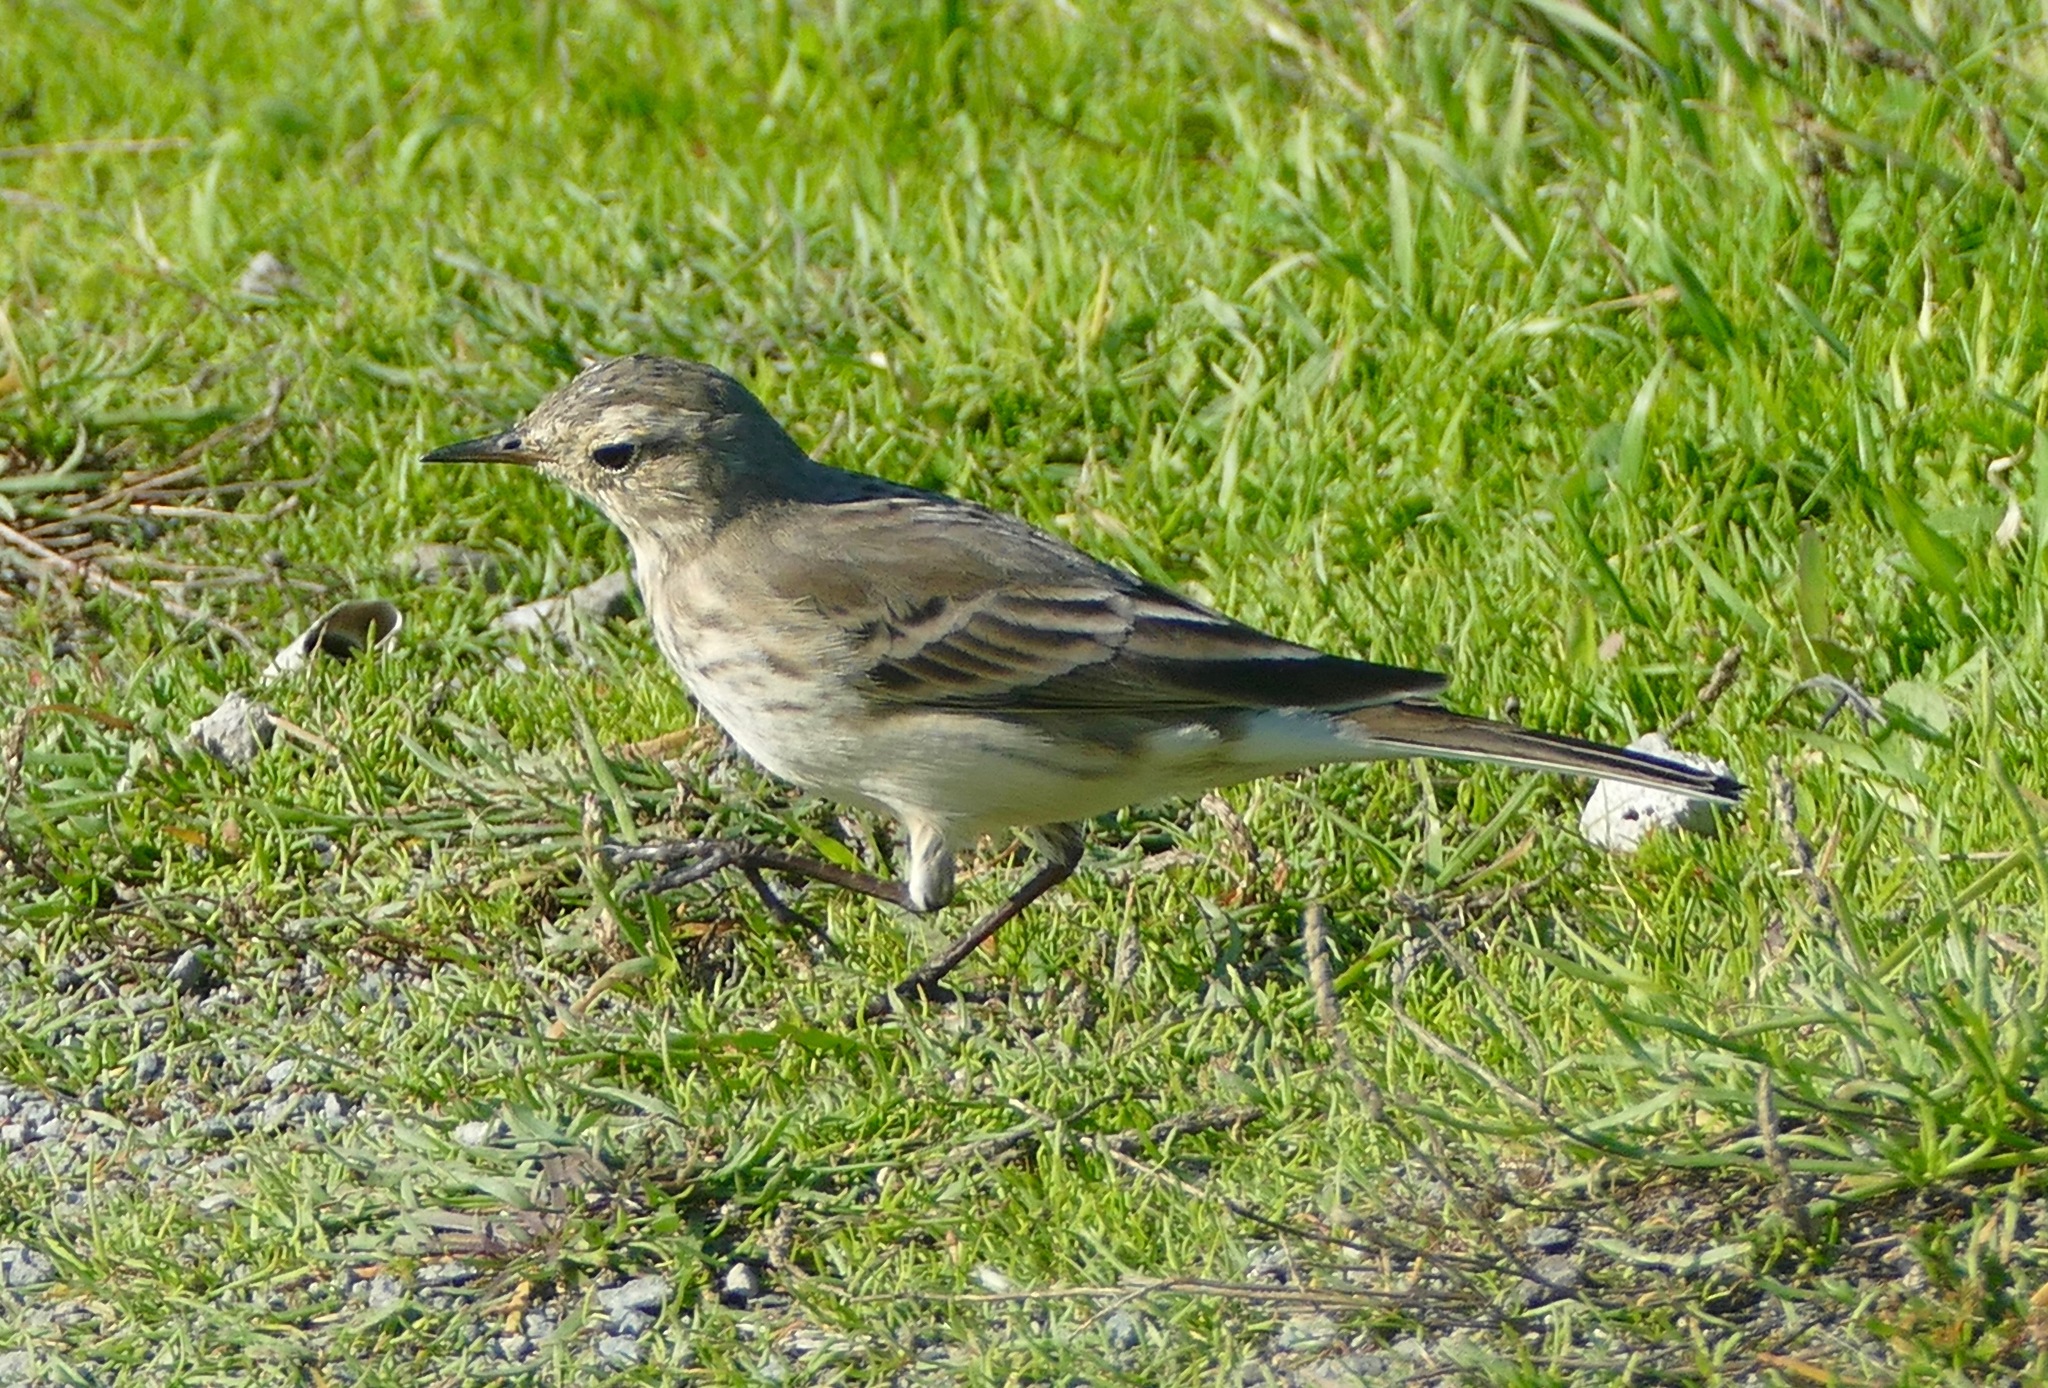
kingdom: Animalia
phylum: Chordata
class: Aves
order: Passeriformes
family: Motacillidae
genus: Anthus
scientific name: Anthus rubescens
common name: Buff-bellied pipit
